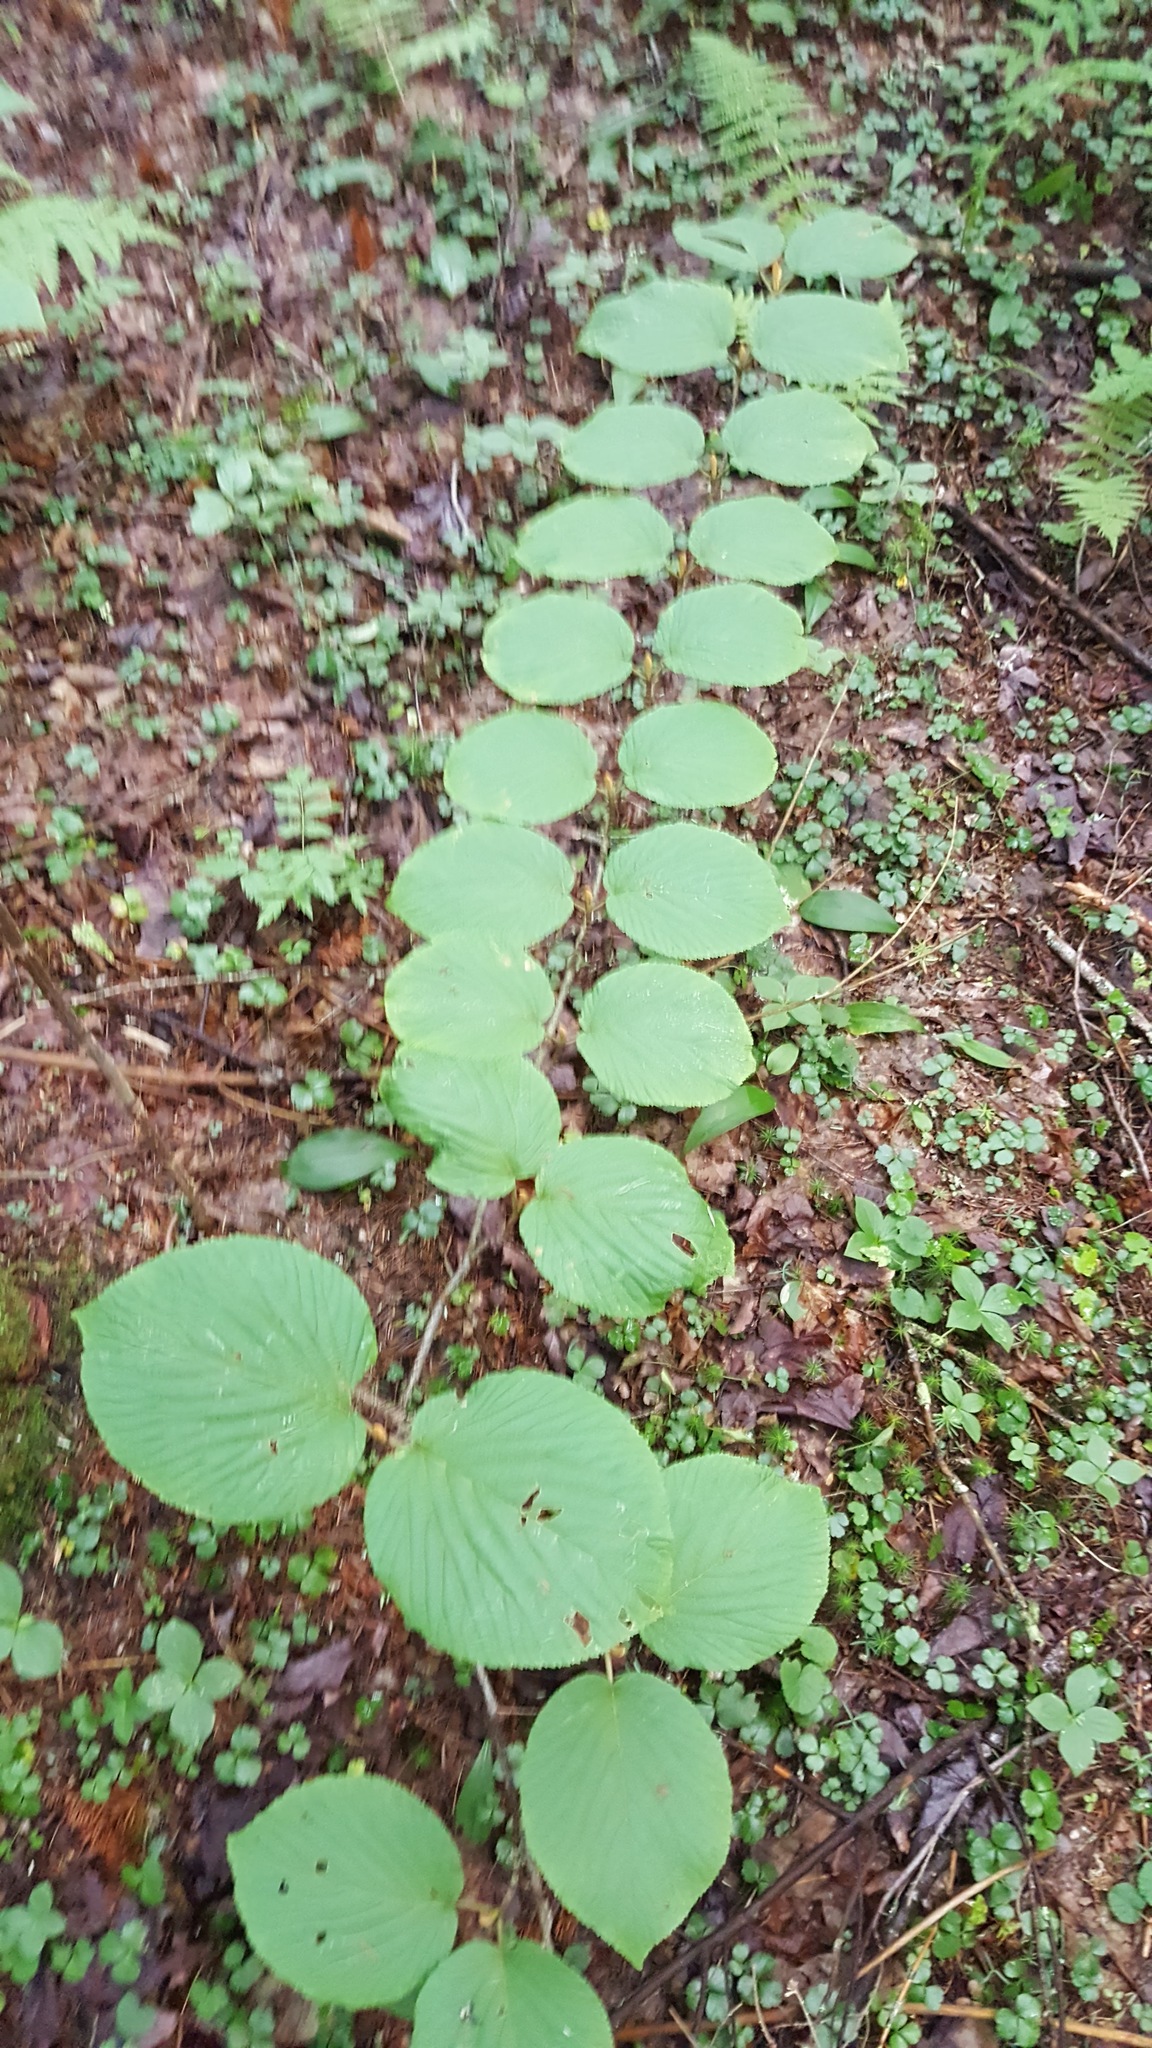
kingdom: Plantae
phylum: Tracheophyta
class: Magnoliopsida
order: Dipsacales
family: Viburnaceae
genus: Viburnum
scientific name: Viburnum lantanoides
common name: Hobblebush
